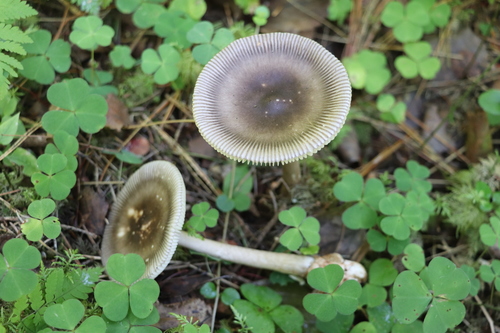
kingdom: Fungi
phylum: Basidiomycota
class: Agaricomycetes
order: Agaricales
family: Amanitaceae
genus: Amanita
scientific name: Amanita battarrae
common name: Banded amanita
